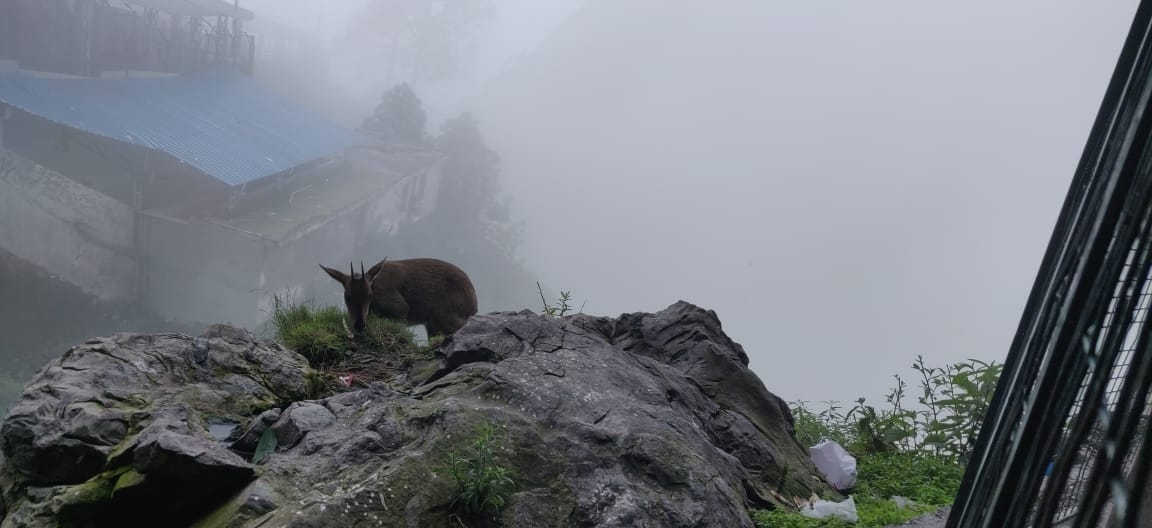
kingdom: Animalia
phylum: Chordata
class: Mammalia
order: Artiodactyla
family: Bovidae
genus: Naemorhedus
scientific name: Naemorhedus goral
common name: Goral
